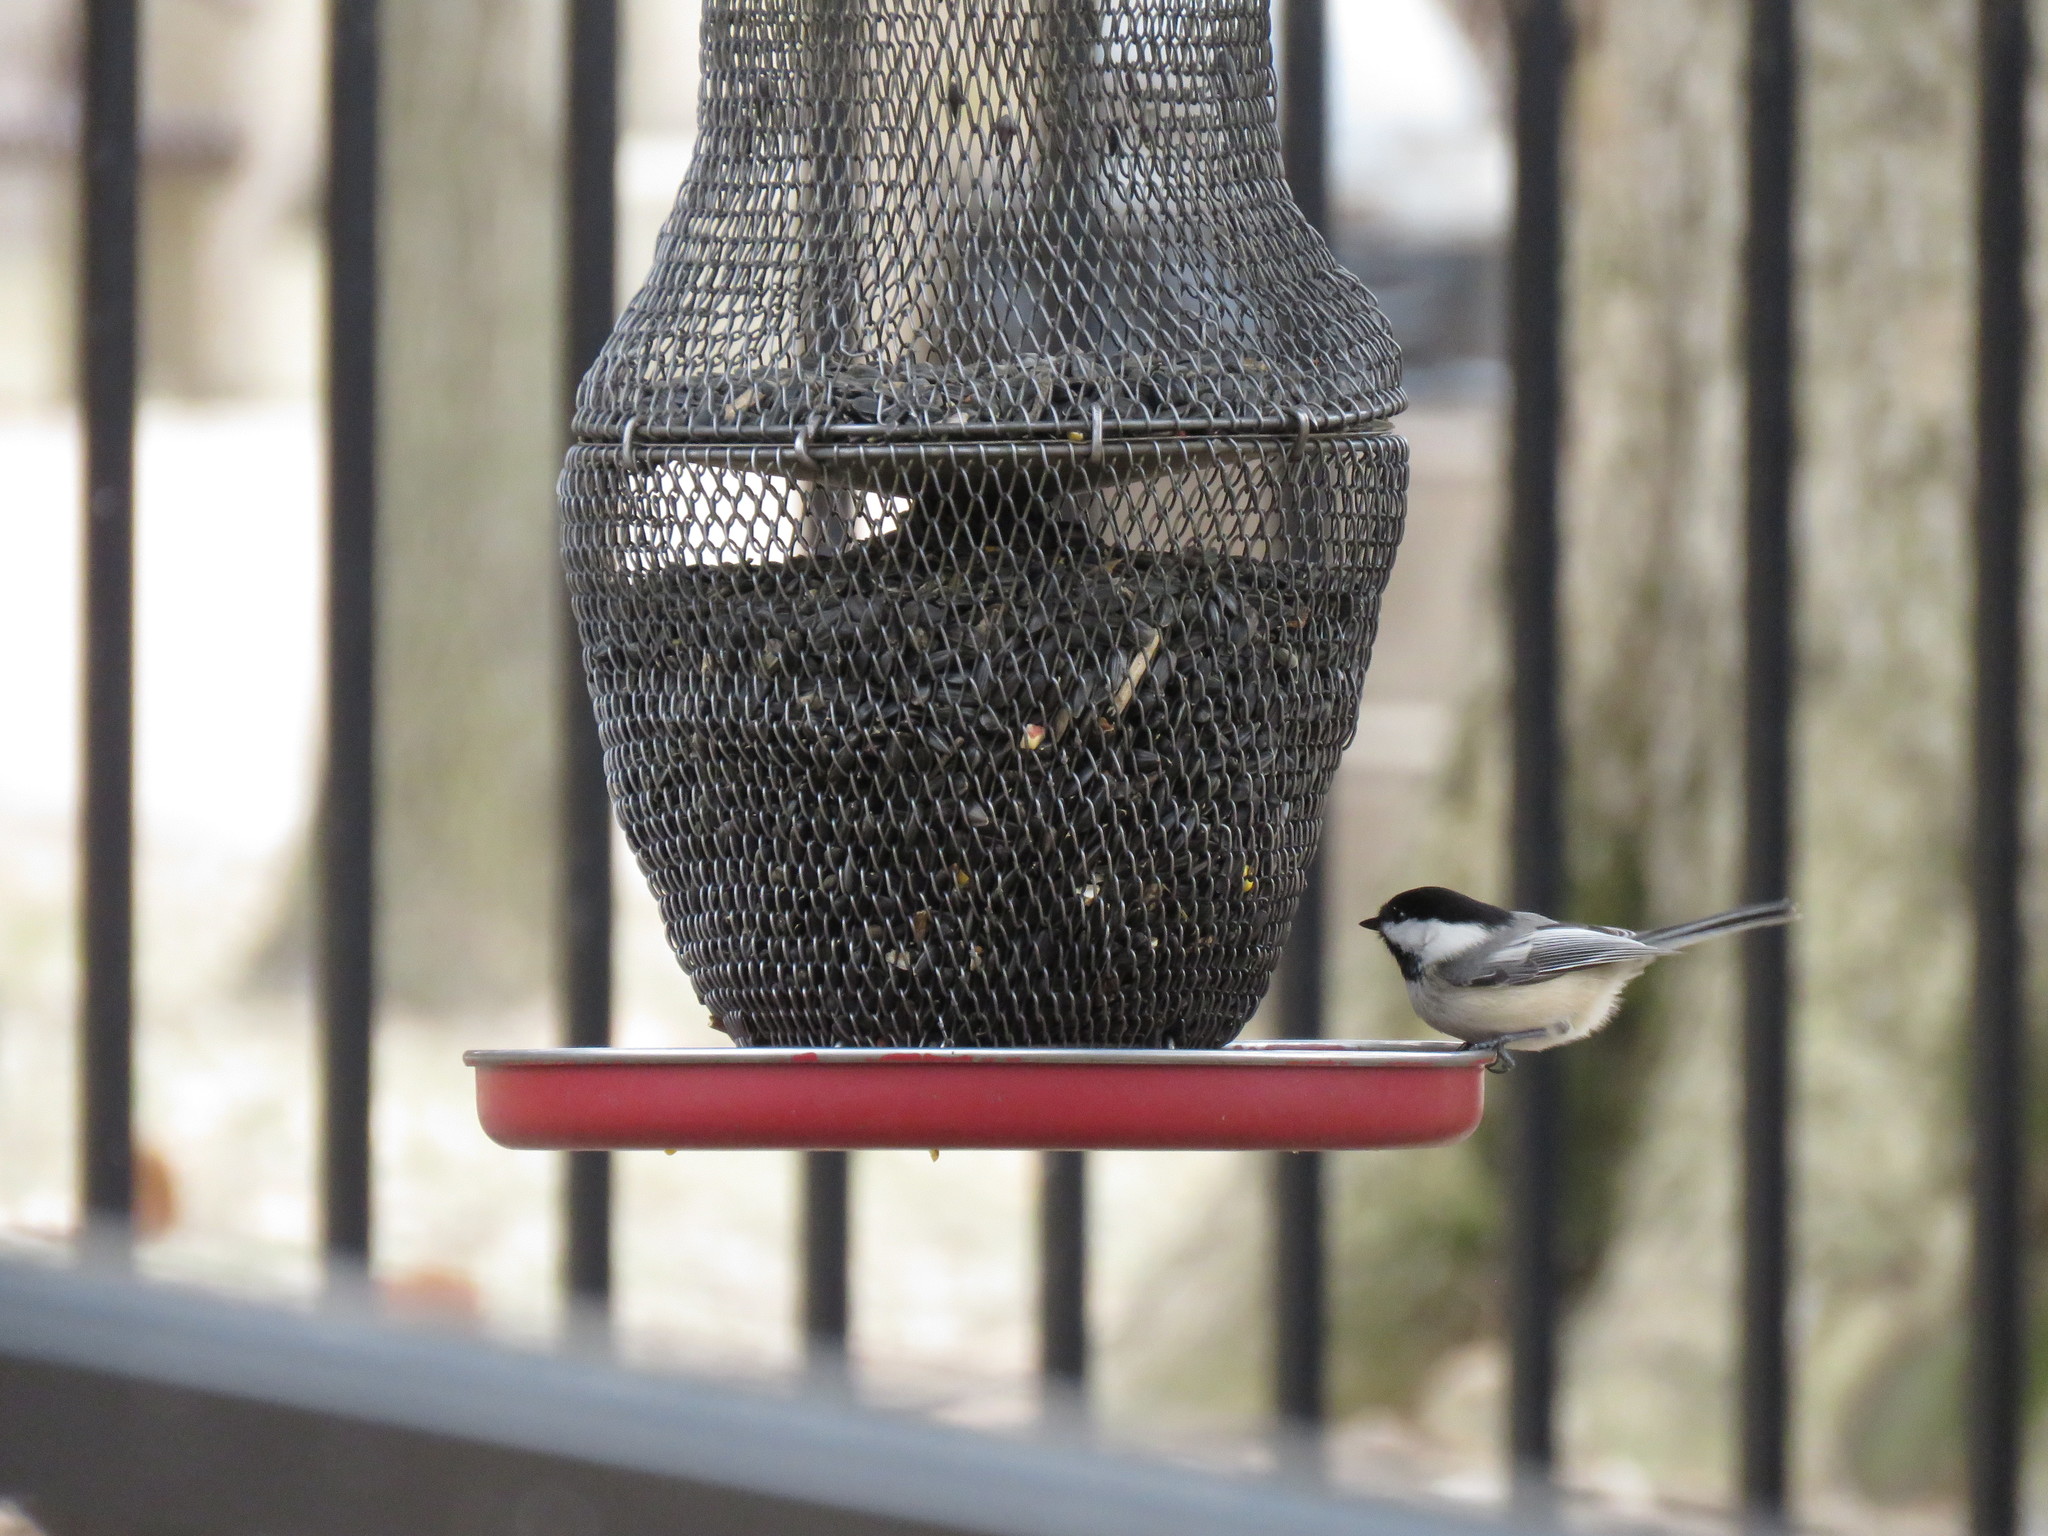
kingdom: Animalia
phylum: Chordata
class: Aves
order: Passeriformes
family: Paridae
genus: Poecile
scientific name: Poecile atricapillus
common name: Black-capped chickadee
